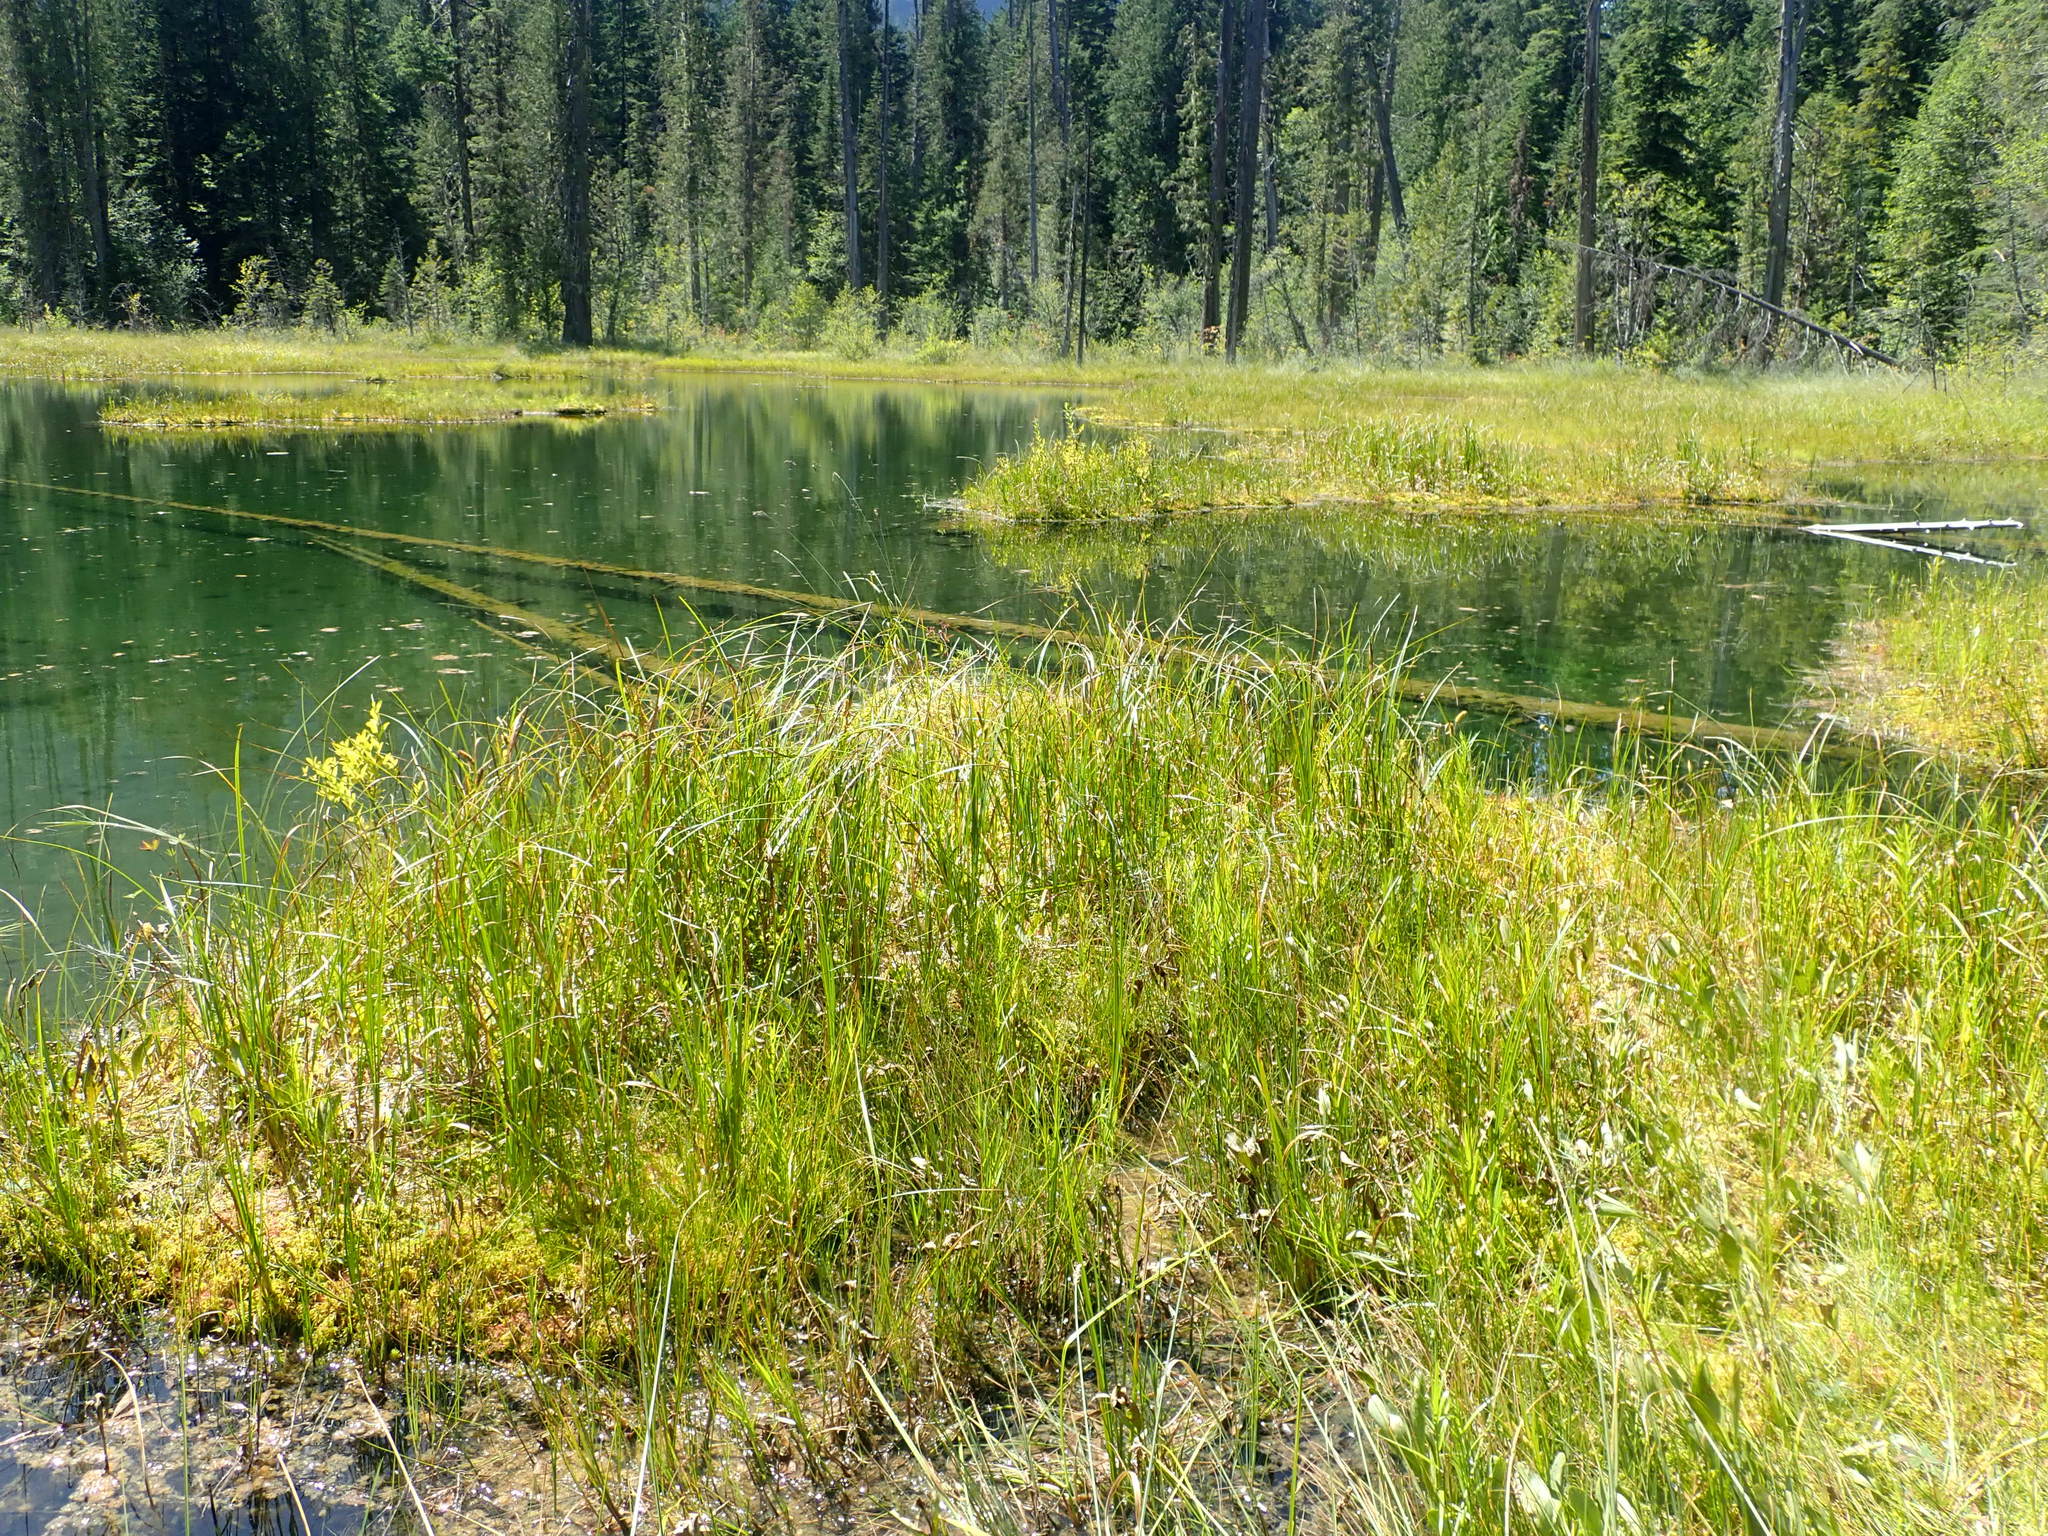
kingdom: Plantae
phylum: Tracheophyta
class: Liliopsida
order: Poales
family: Cyperaceae
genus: Carex
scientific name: Carex utriculata
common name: Beaked sedge
